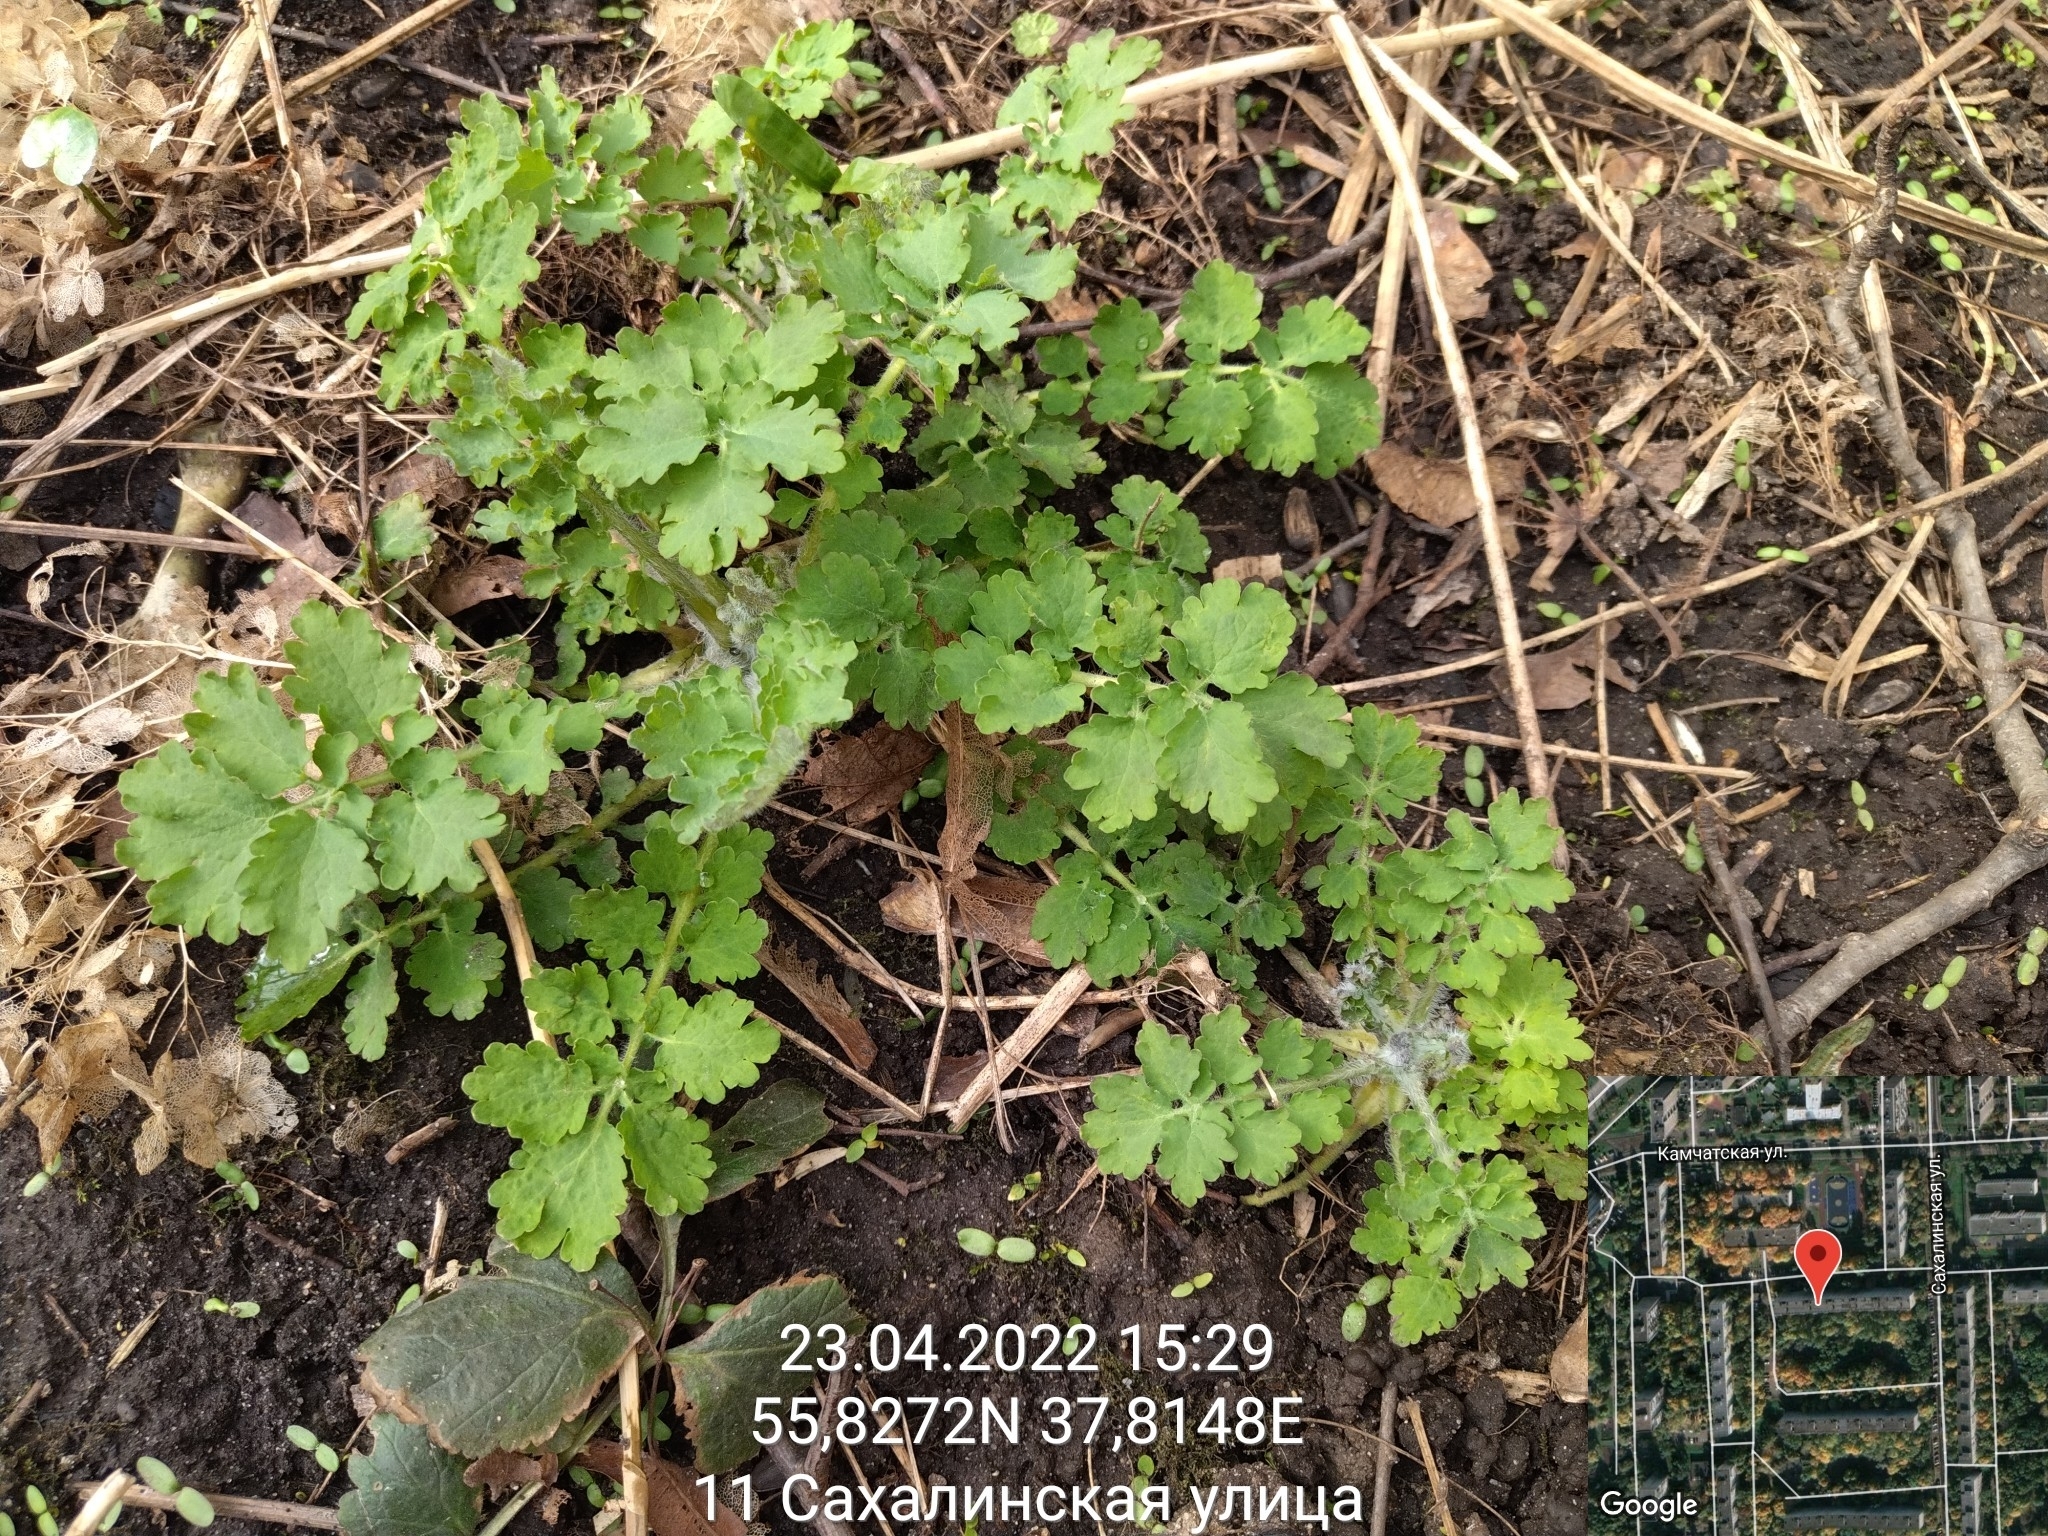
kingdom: Plantae
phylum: Tracheophyta
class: Magnoliopsida
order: Ranunculales
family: Papaveraceae
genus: Chelidonium
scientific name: Chelidonium majus
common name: Greater celandine
